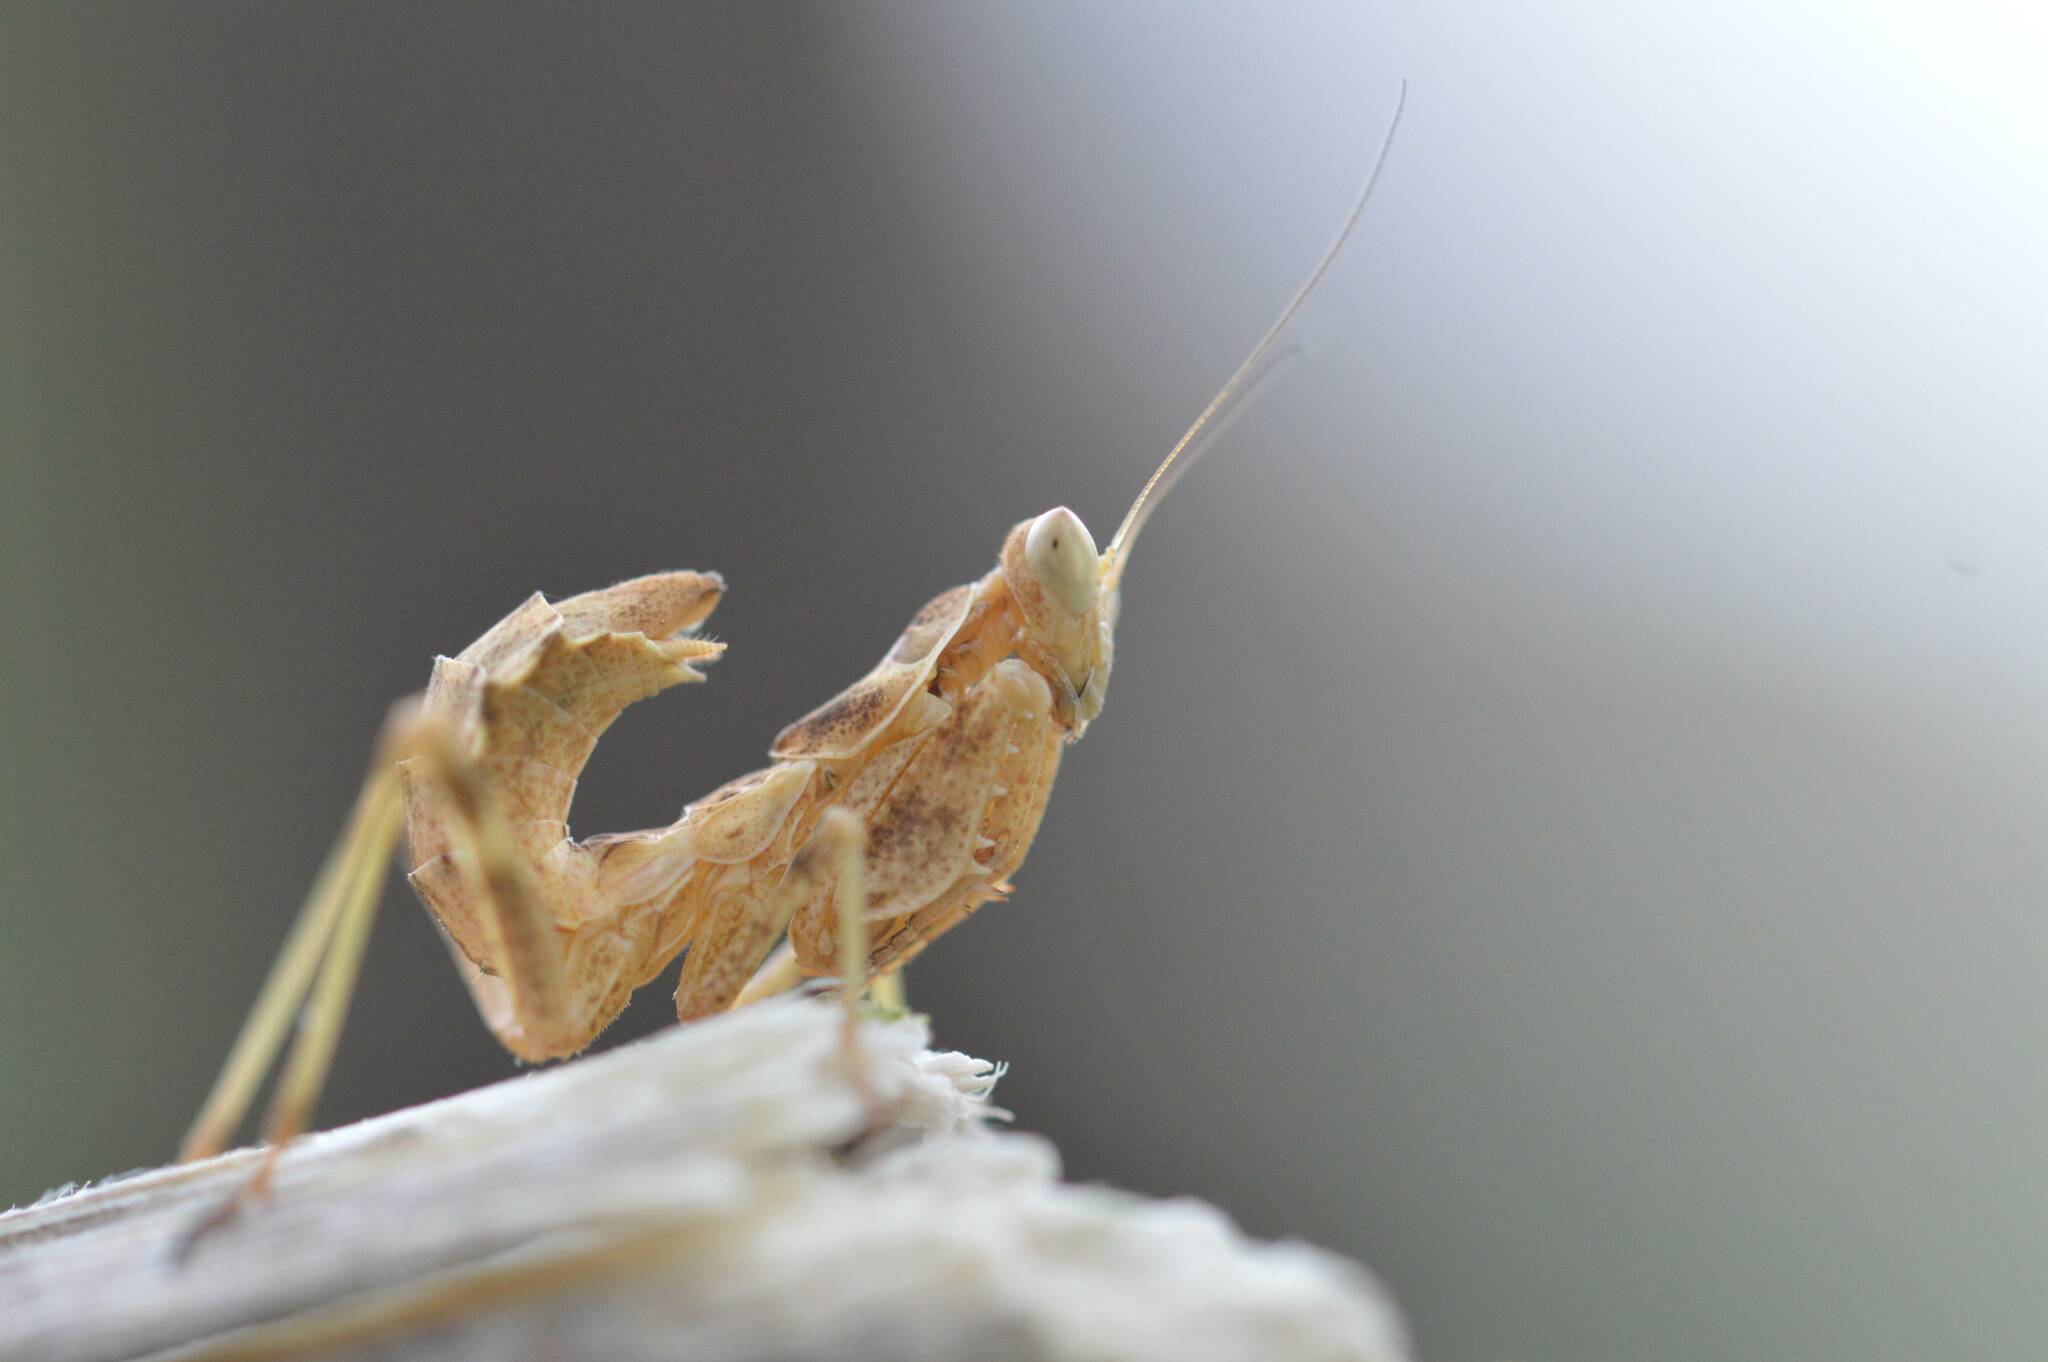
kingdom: Animalia
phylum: Arthropoda
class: Insecta
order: Mantodea
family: Amelidae
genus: Ameles
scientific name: Ameles spallanzania
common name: European dwarf mantis
